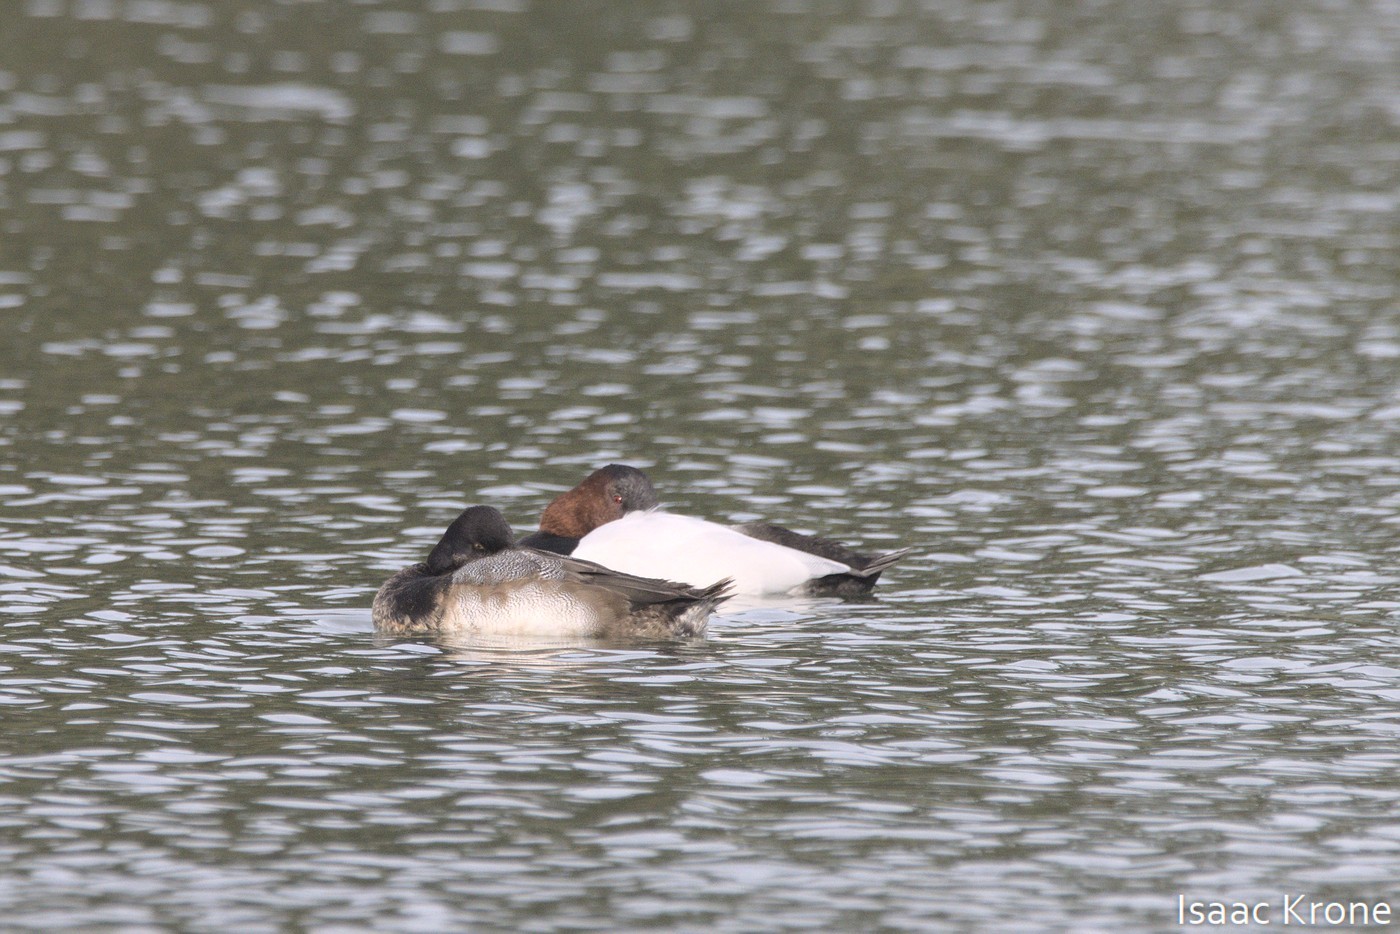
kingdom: Animalia
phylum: Chordata
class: Aves
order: Anseriformes
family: Anatidae
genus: Aythya
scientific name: Aythya valisineria
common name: Canvasback
